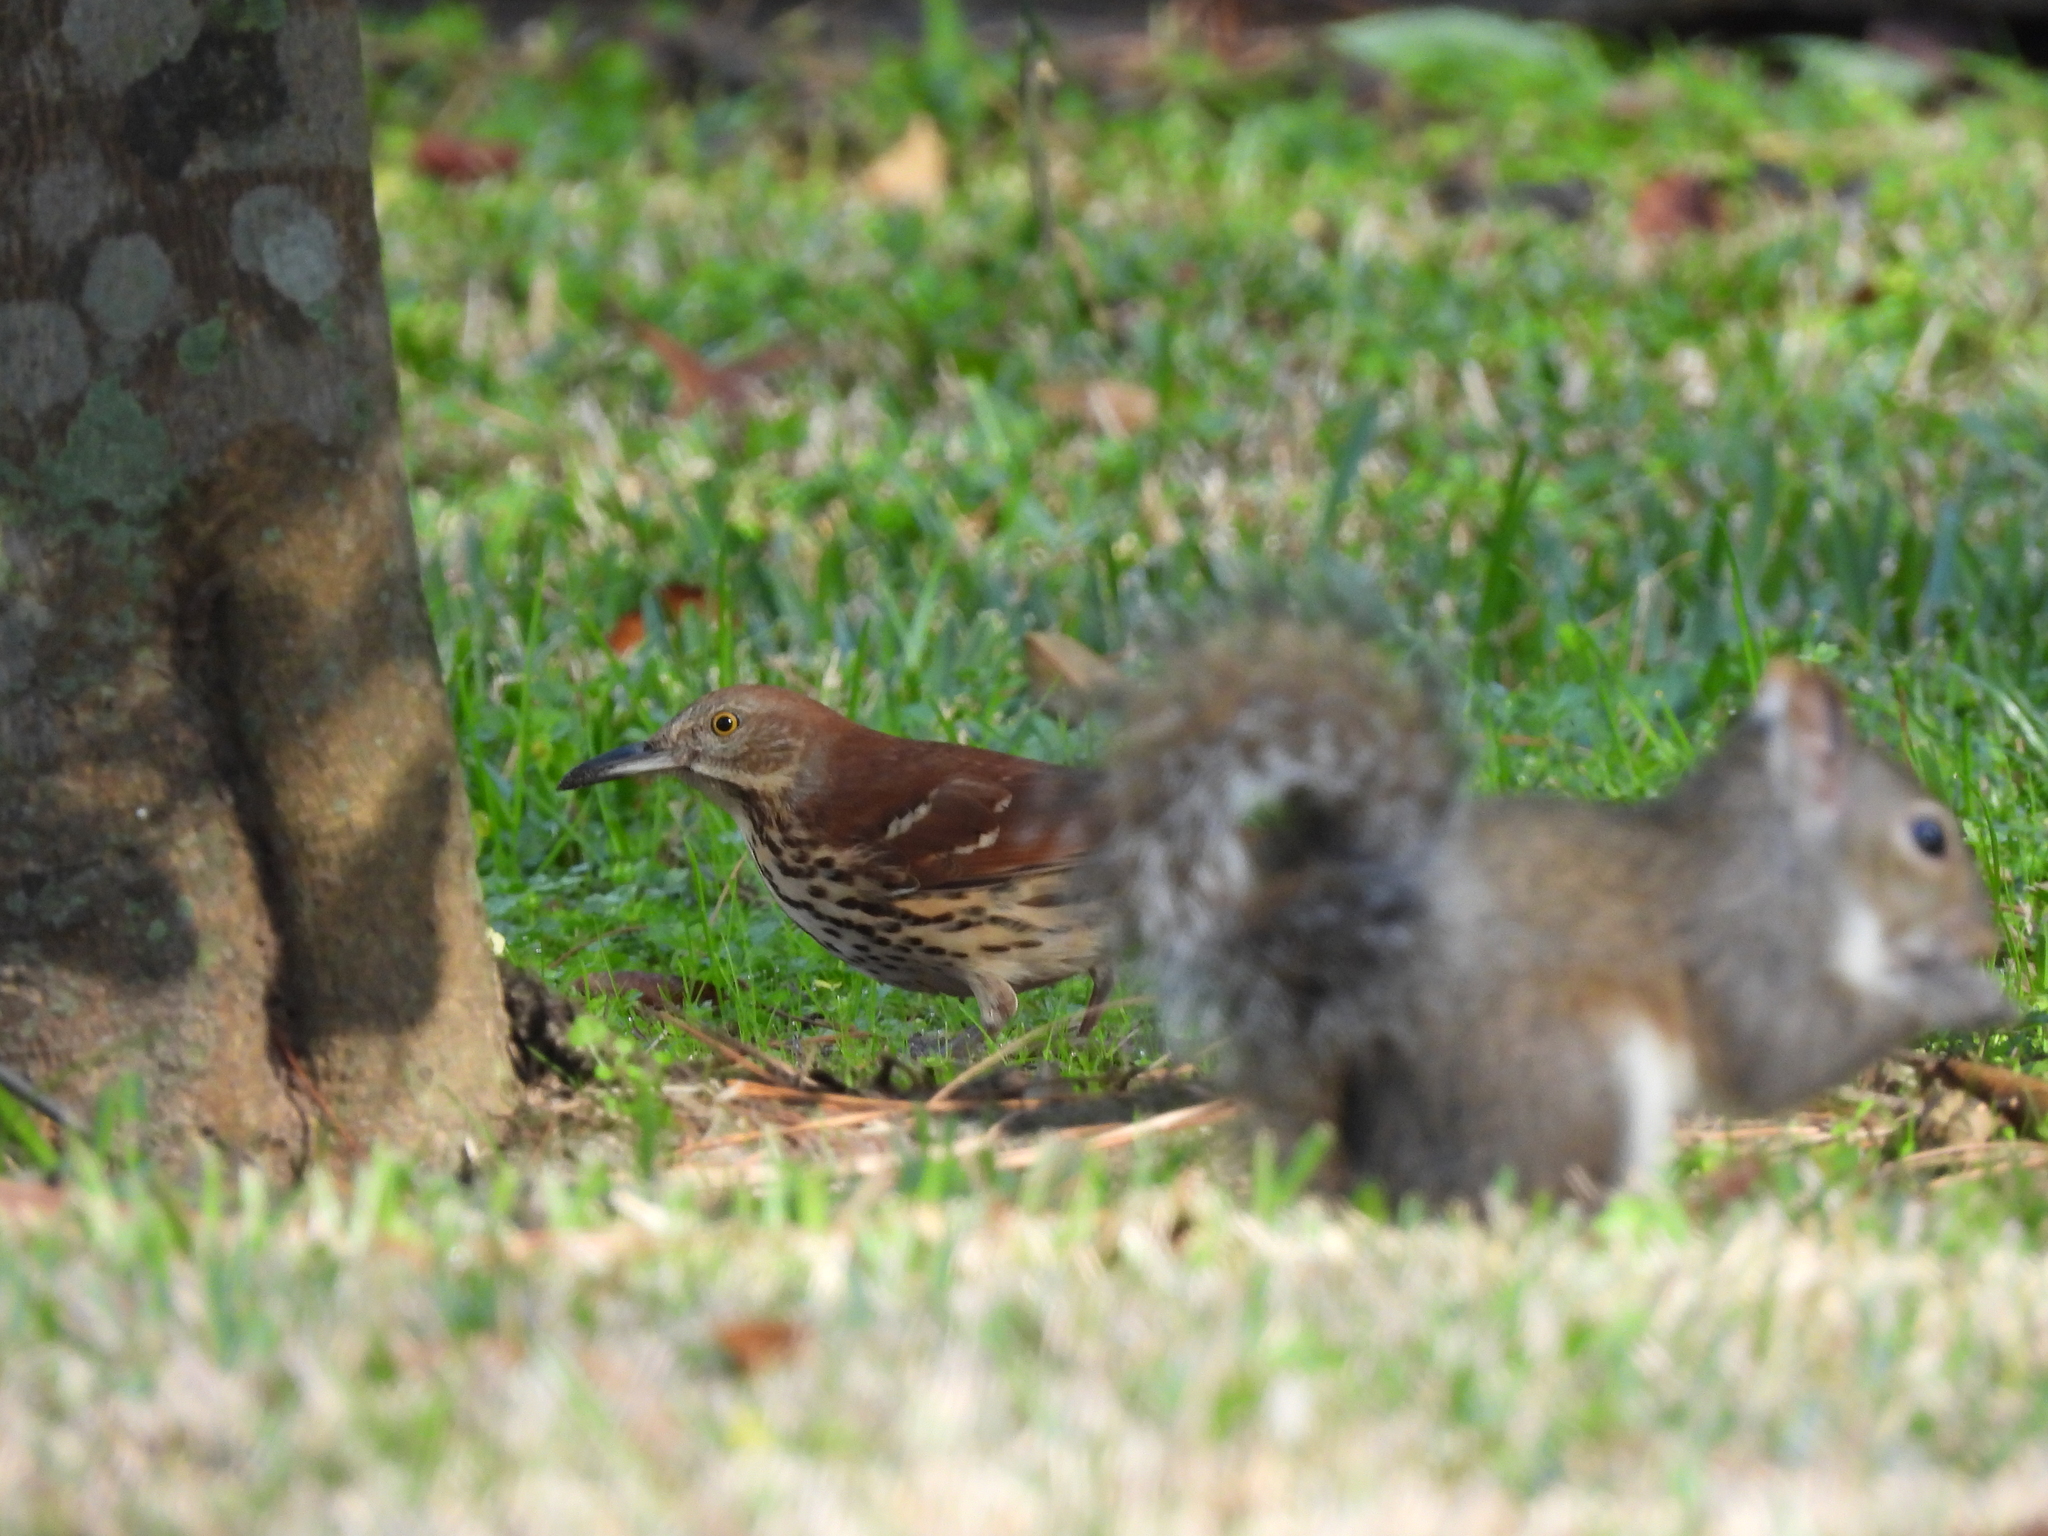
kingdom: Animalia
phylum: Chordata
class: Aves
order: Passeriformes
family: Mimidae
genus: Toxostoma
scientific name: Toxostoma rufum
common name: Brown thrasher
